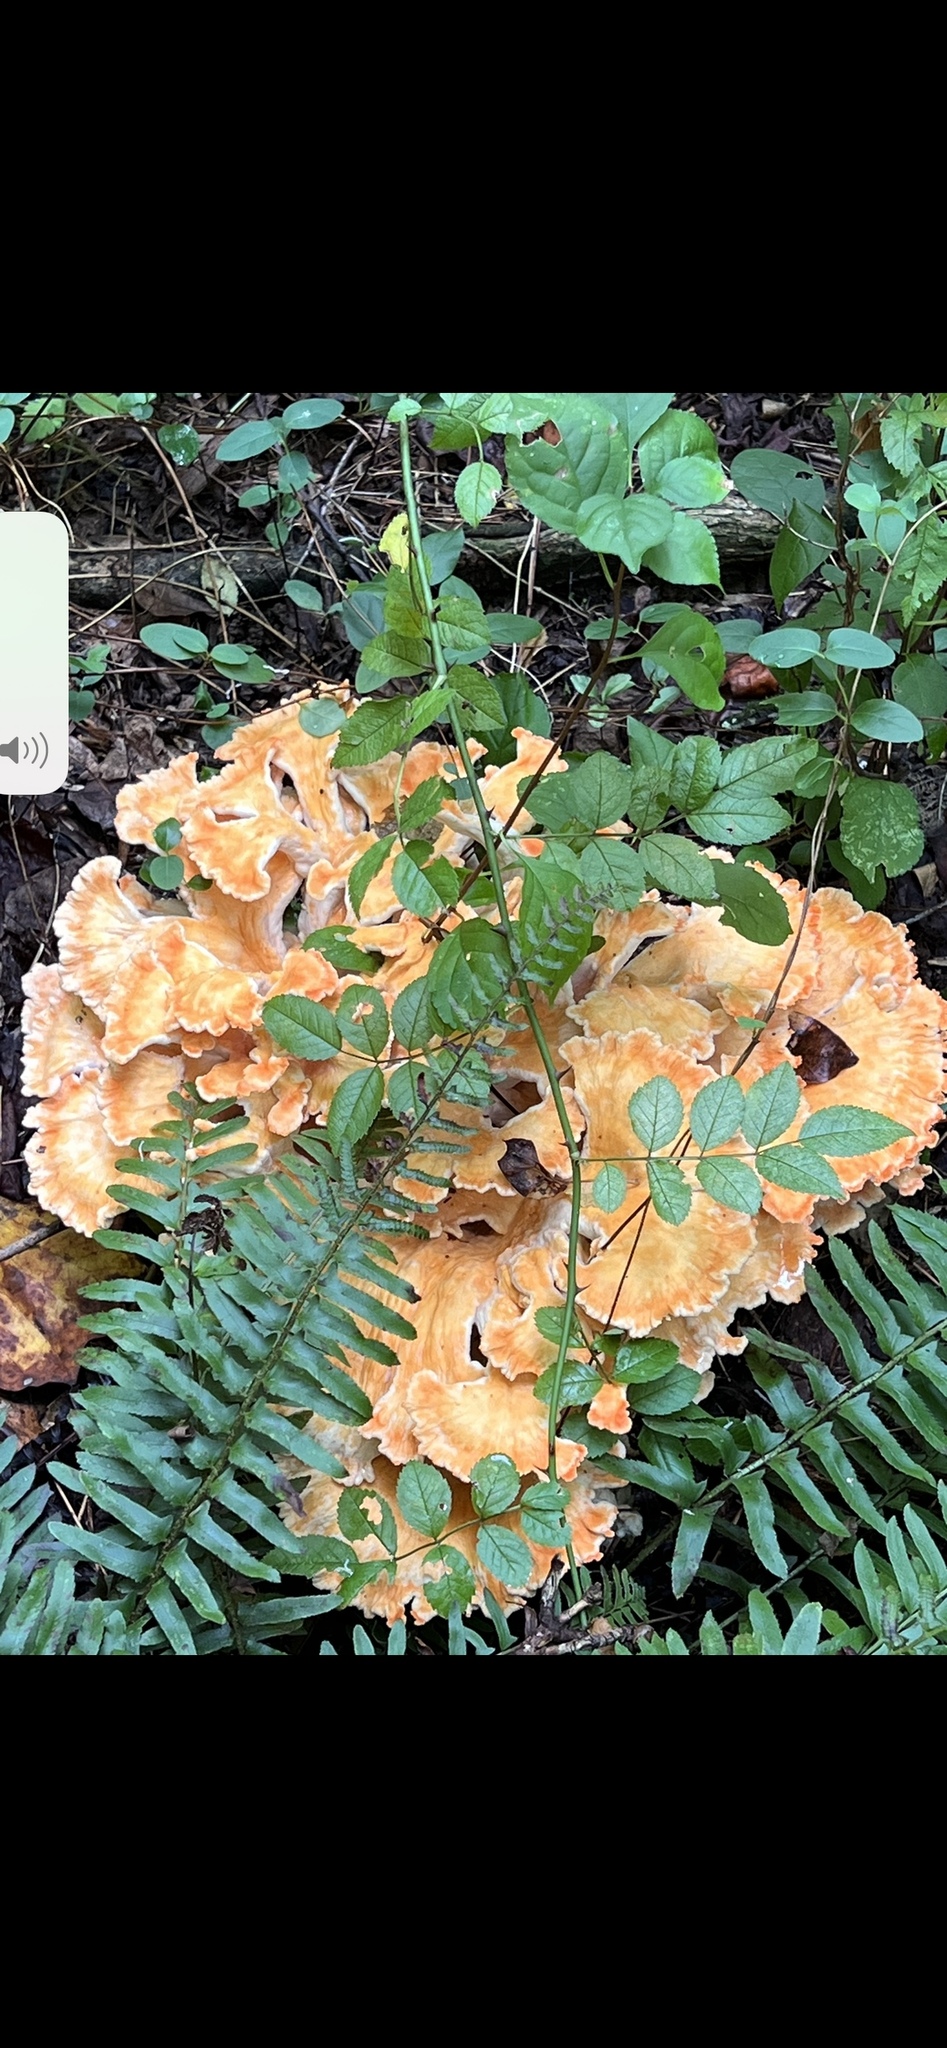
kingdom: Fungi
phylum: Basidiomycota
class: Agaricomycetes
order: Polyporales
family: Laetiporaceae
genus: Laetiporus
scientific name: Laetiporus sulphureus
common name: Chicken of the woods
